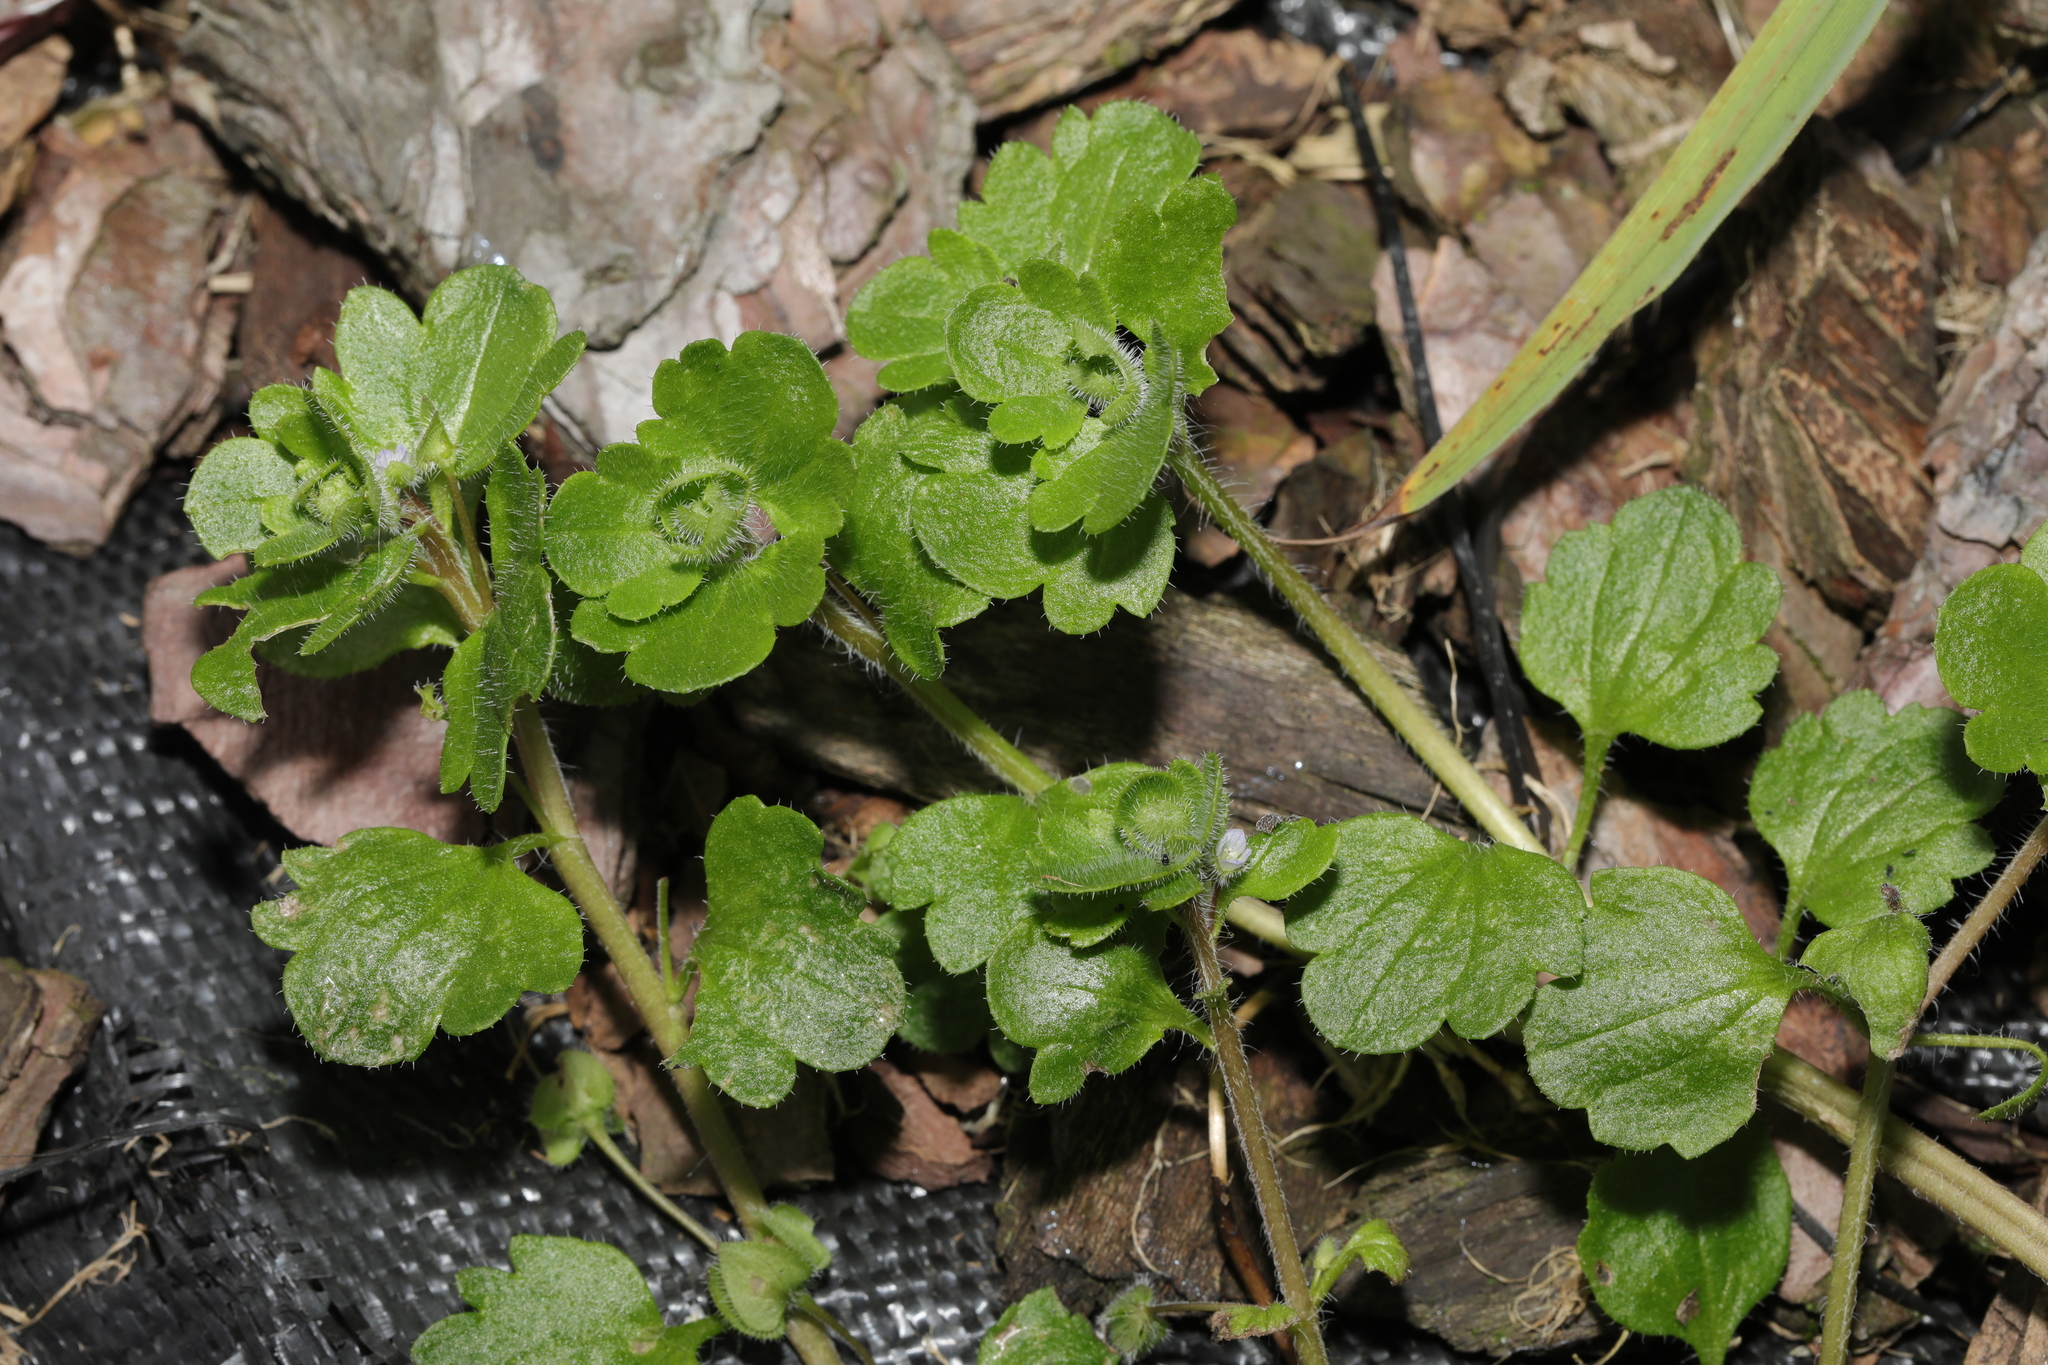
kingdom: Plantae
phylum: Tracheophyta
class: Magnoliopsida
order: Lamiales
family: Plantaginaceae
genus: Veronica
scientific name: Veronica hederifolia
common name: Ivy-leaved speedwell
